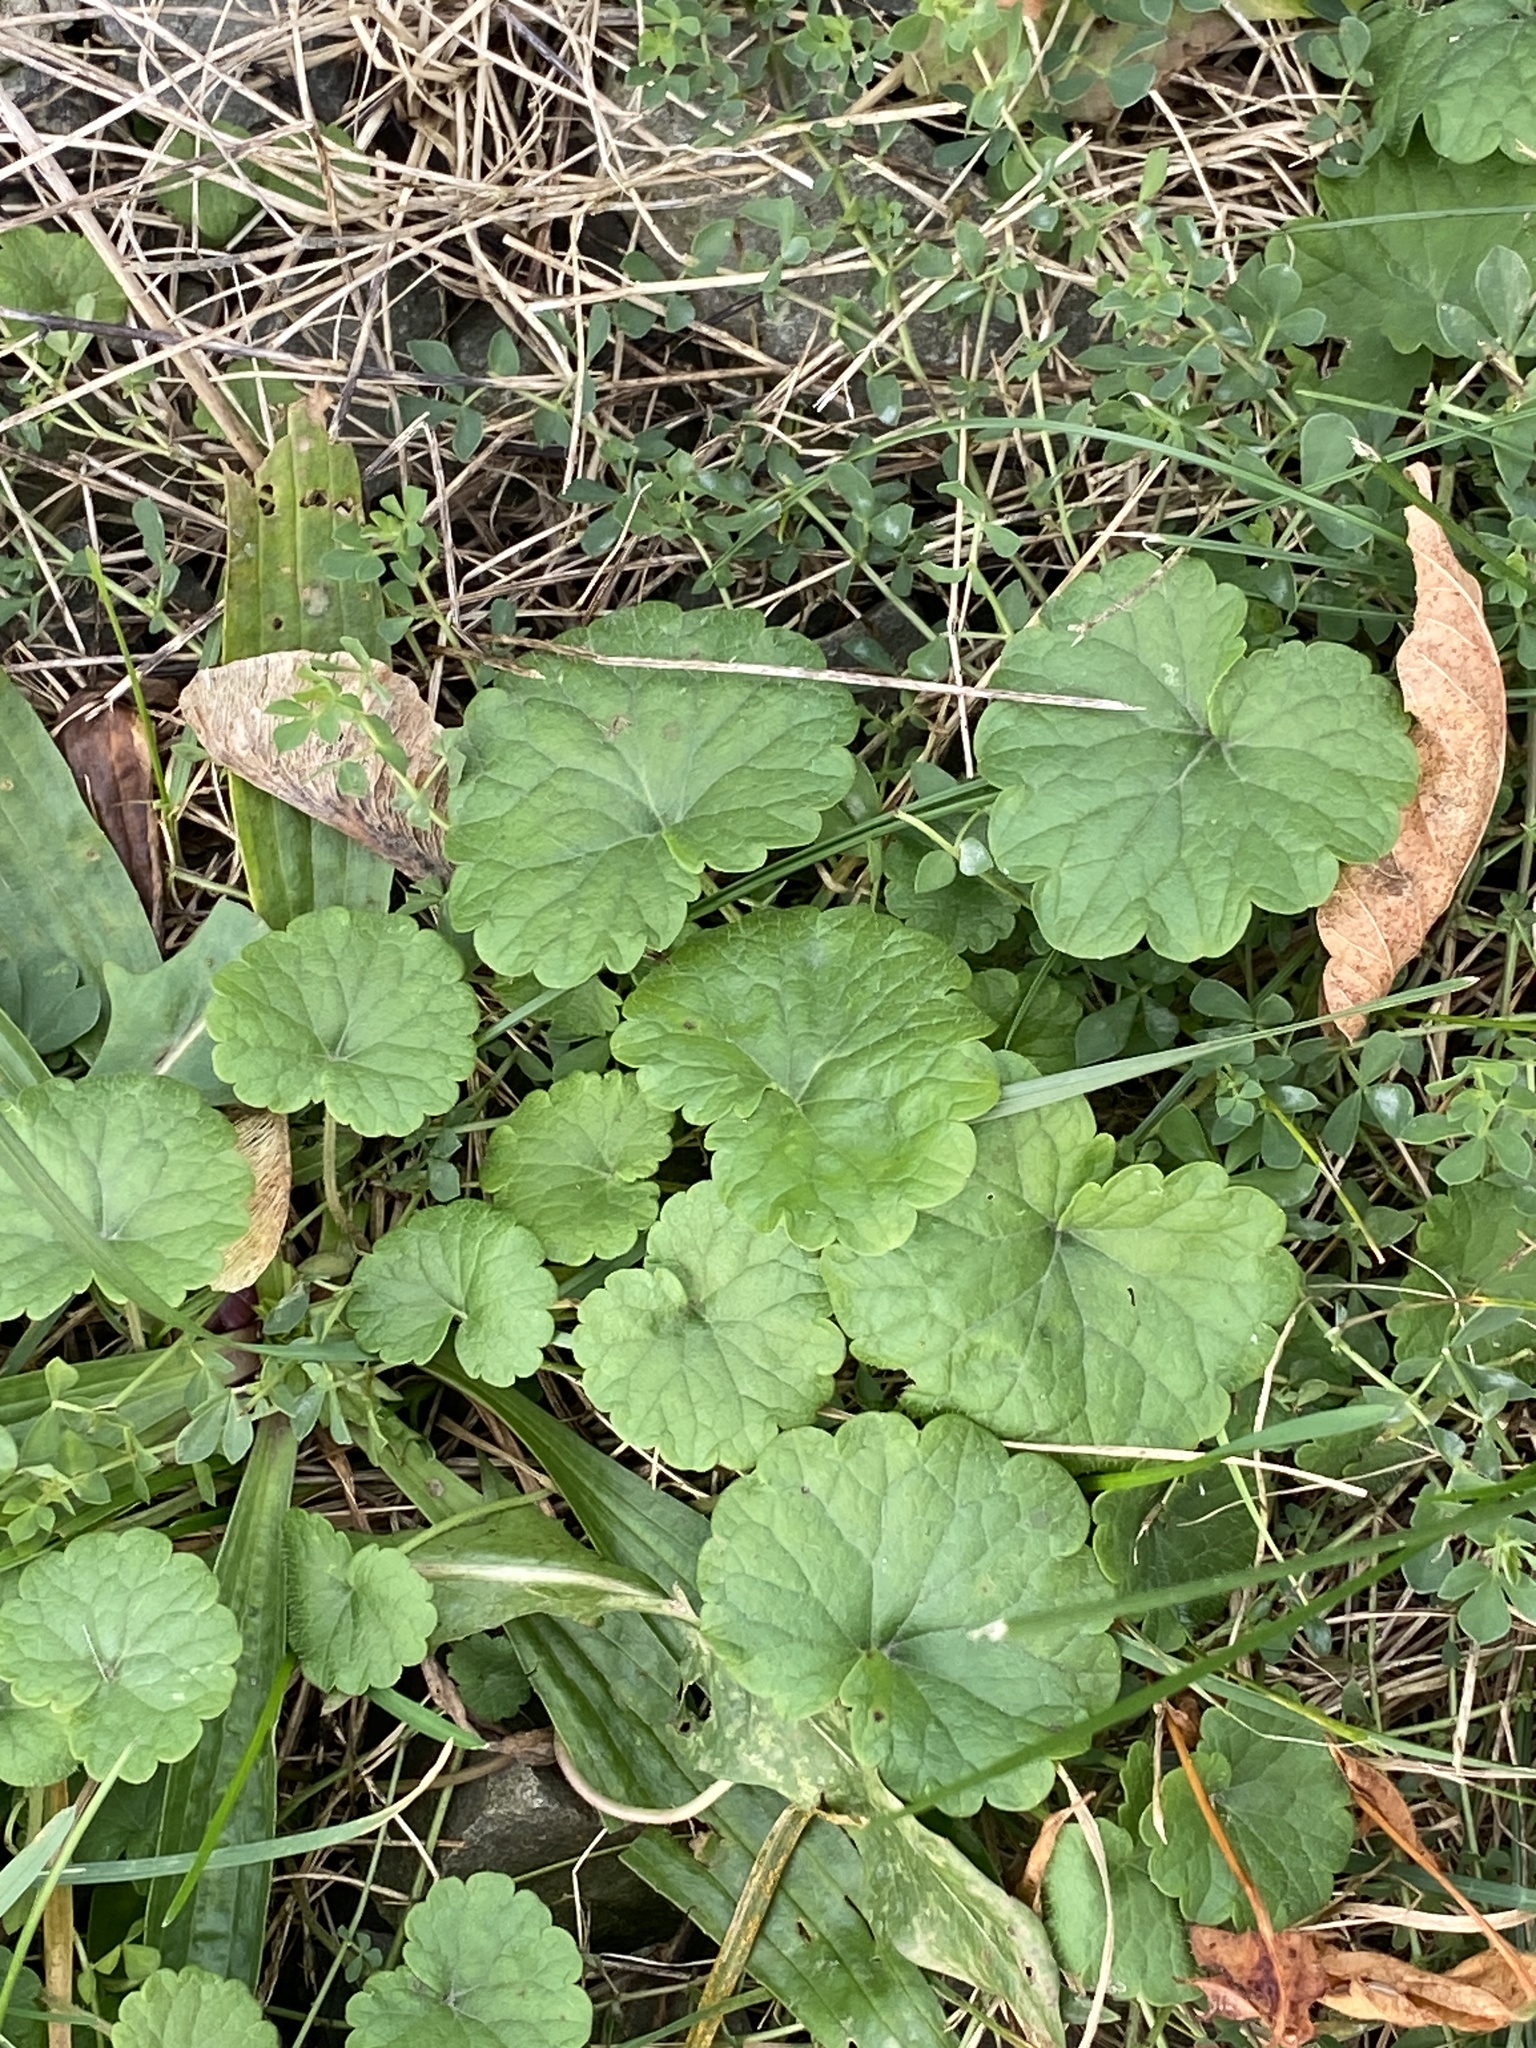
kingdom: Plantae
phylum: Tracheophyta
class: Magnoliopsida
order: Lamiales
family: Lamiaceae
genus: Glechoma
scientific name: Glechoma hederacea
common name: Ground ivy
